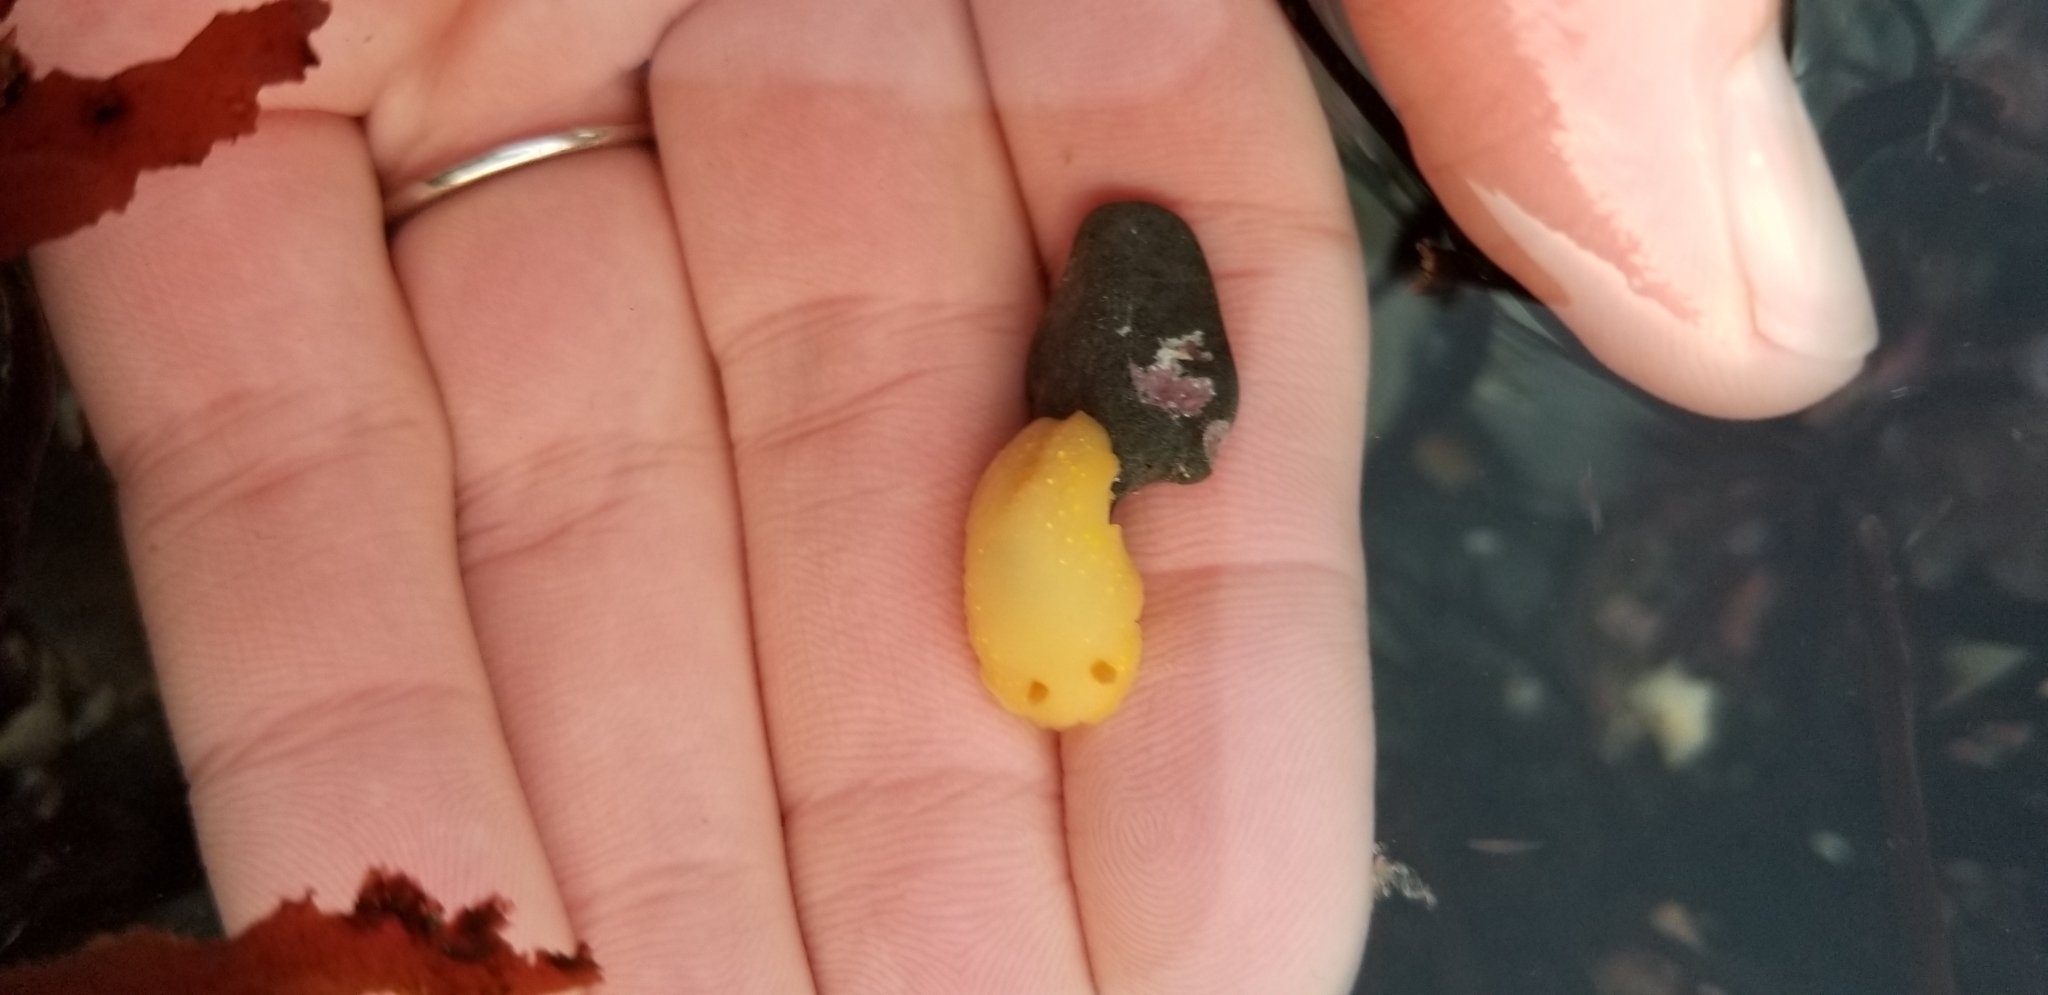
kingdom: Animalia
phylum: Mollusca
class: Gastropoda
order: Nudibranchia
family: Cadlinidae
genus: Cadlina
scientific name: Cadlina modesta
